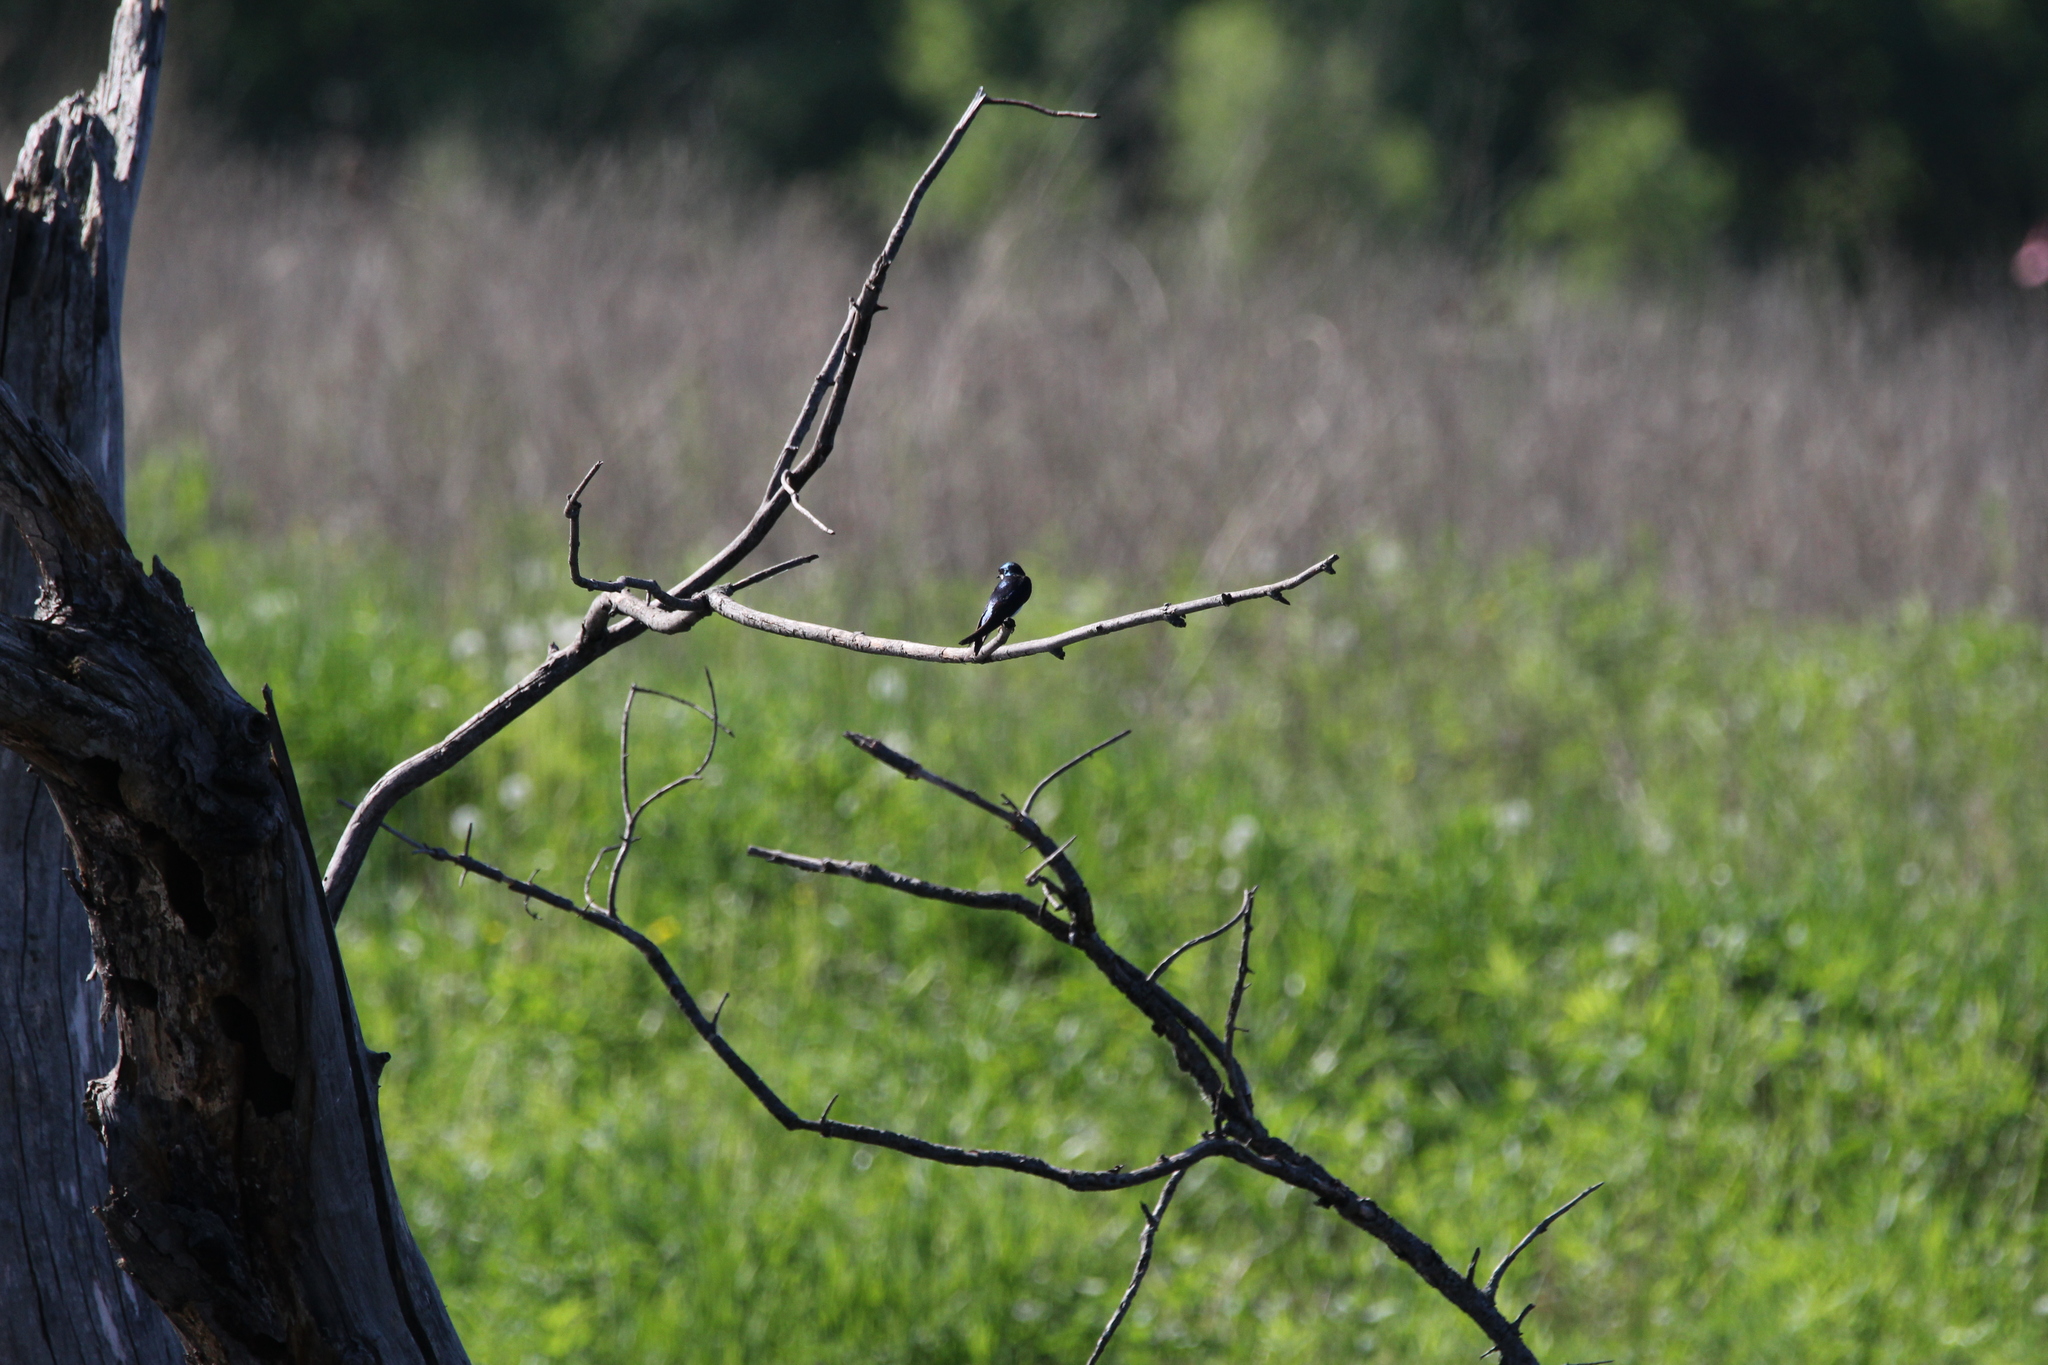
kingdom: Animalia
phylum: Chordata
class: Aves
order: Passeriformes
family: Hirundinidae
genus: Tachycineta
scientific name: Tachycineta bicolor
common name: Tree swallow
